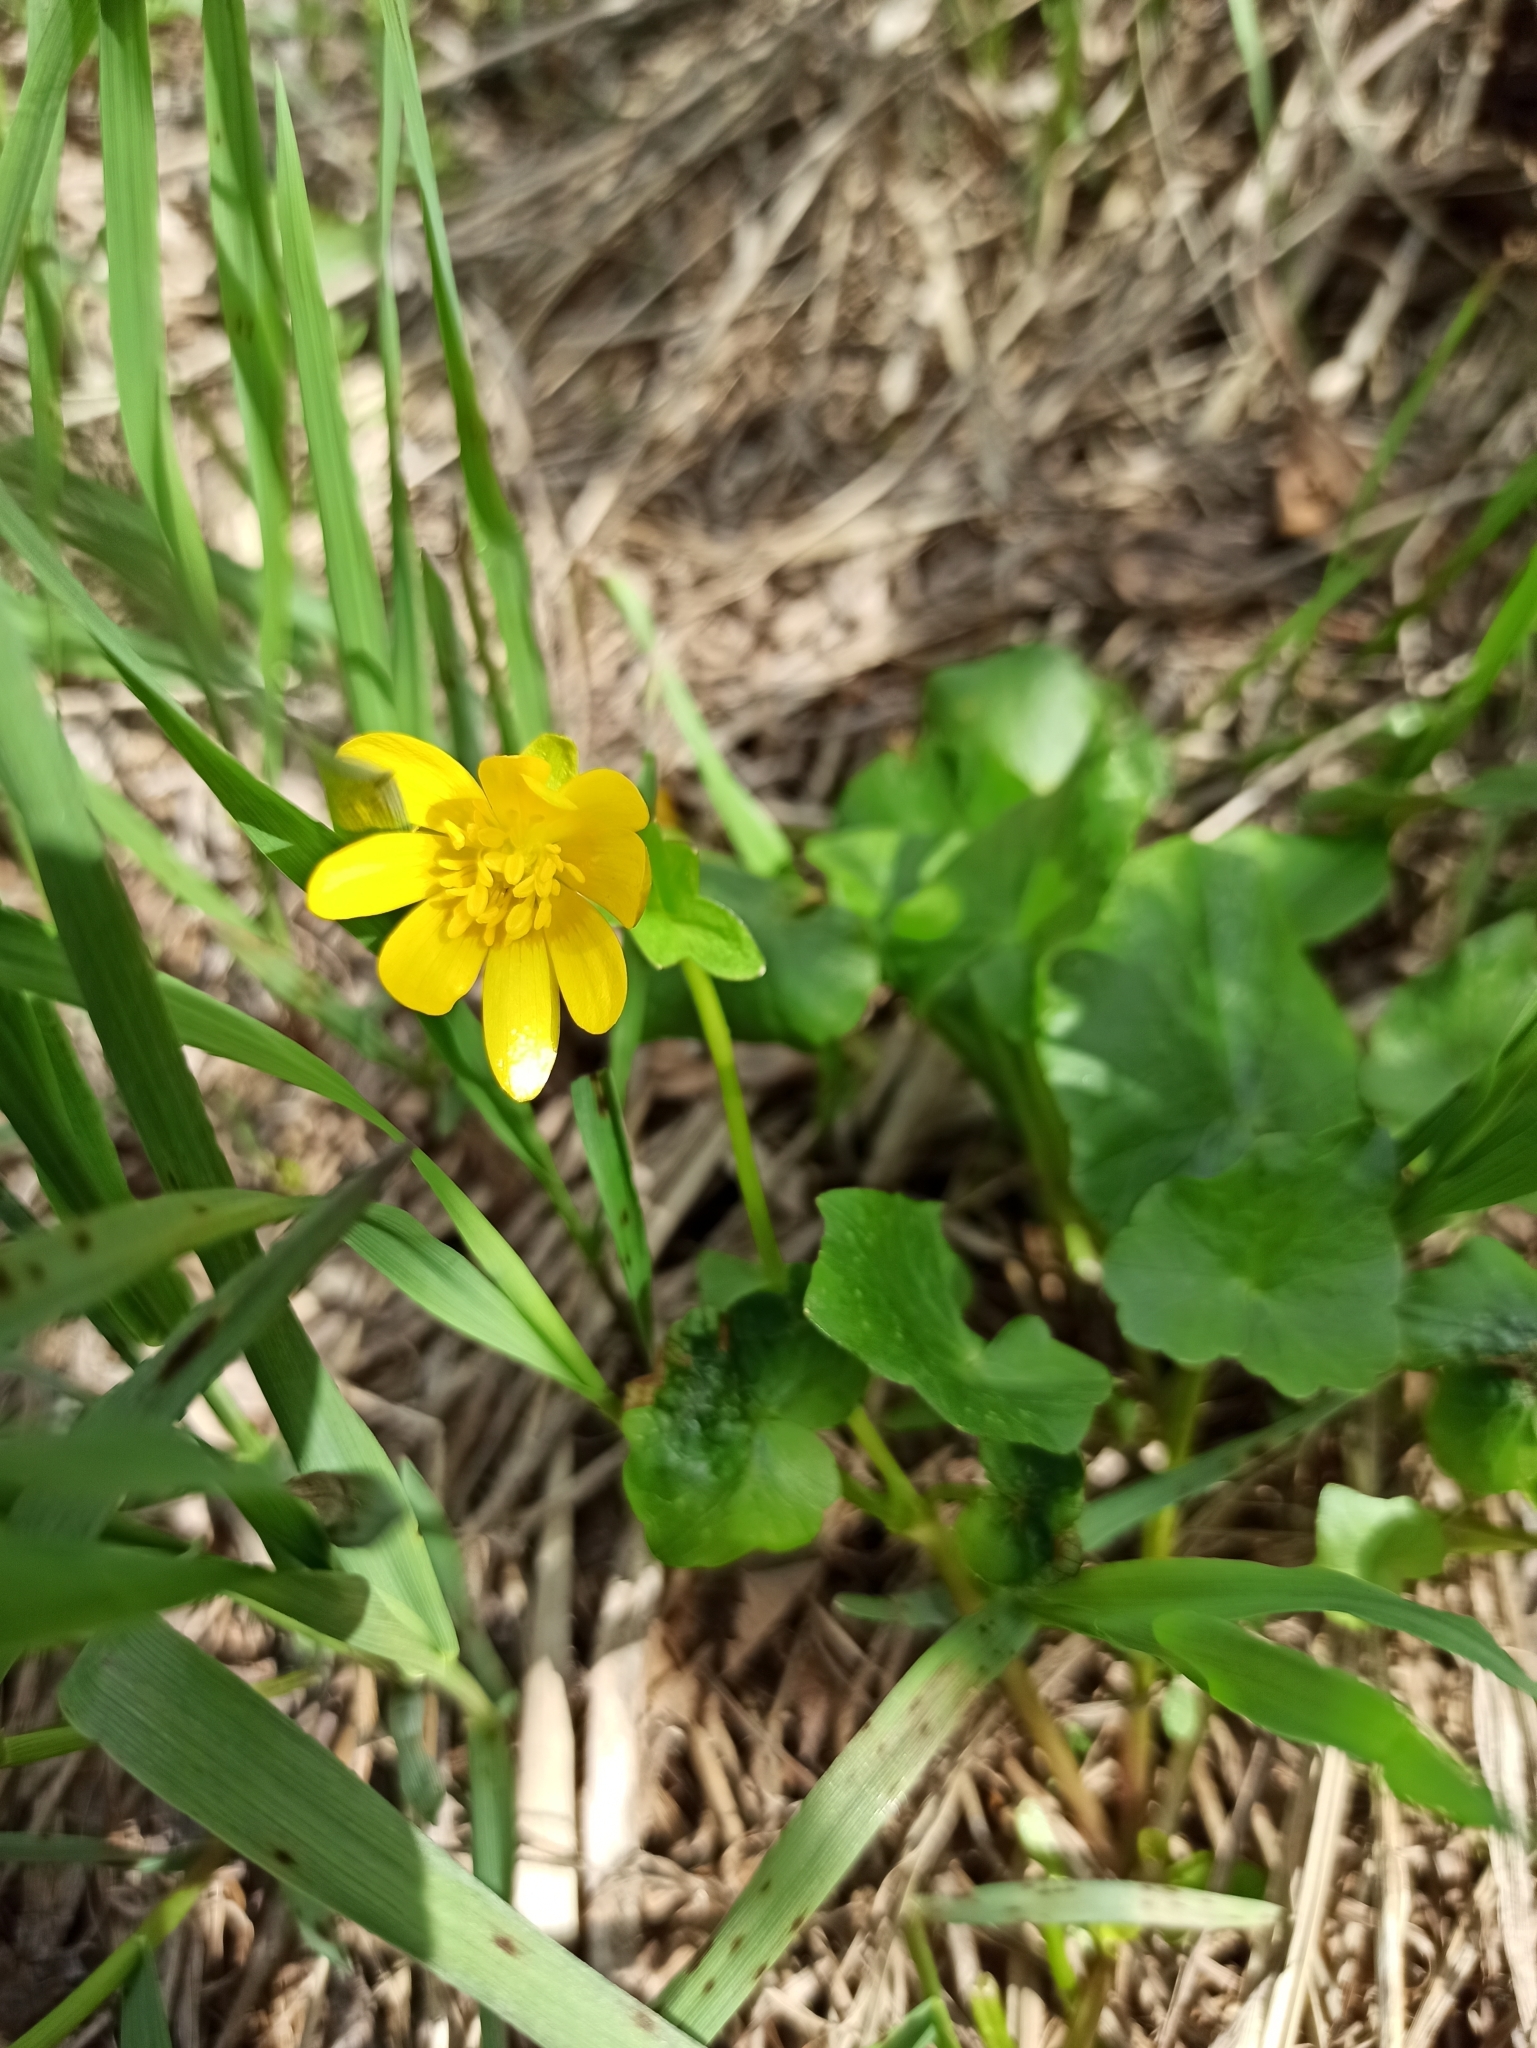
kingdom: Plantae
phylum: Tracheophyta
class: Magnoliopsida
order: Ranunculales
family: Ranunculaceae
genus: Ficaria
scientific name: Ficaria verna
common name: Lesser celandine
